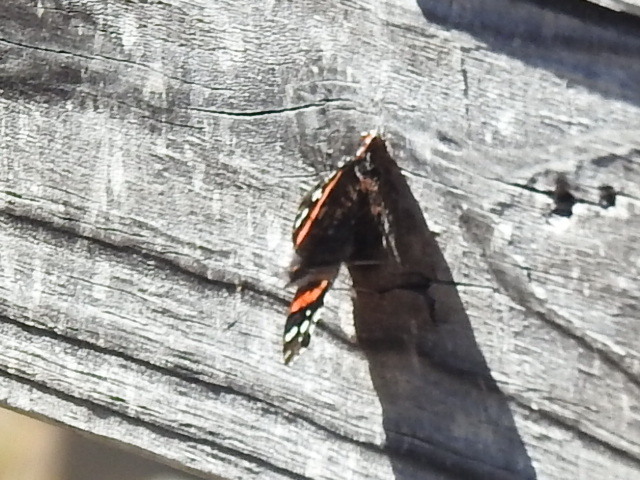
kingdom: Animalia
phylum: Arthropoda
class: Insecta
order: Lepidoptera
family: Nymphalidae
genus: Vanessa
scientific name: Vanessa atalanta
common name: Red admiral
